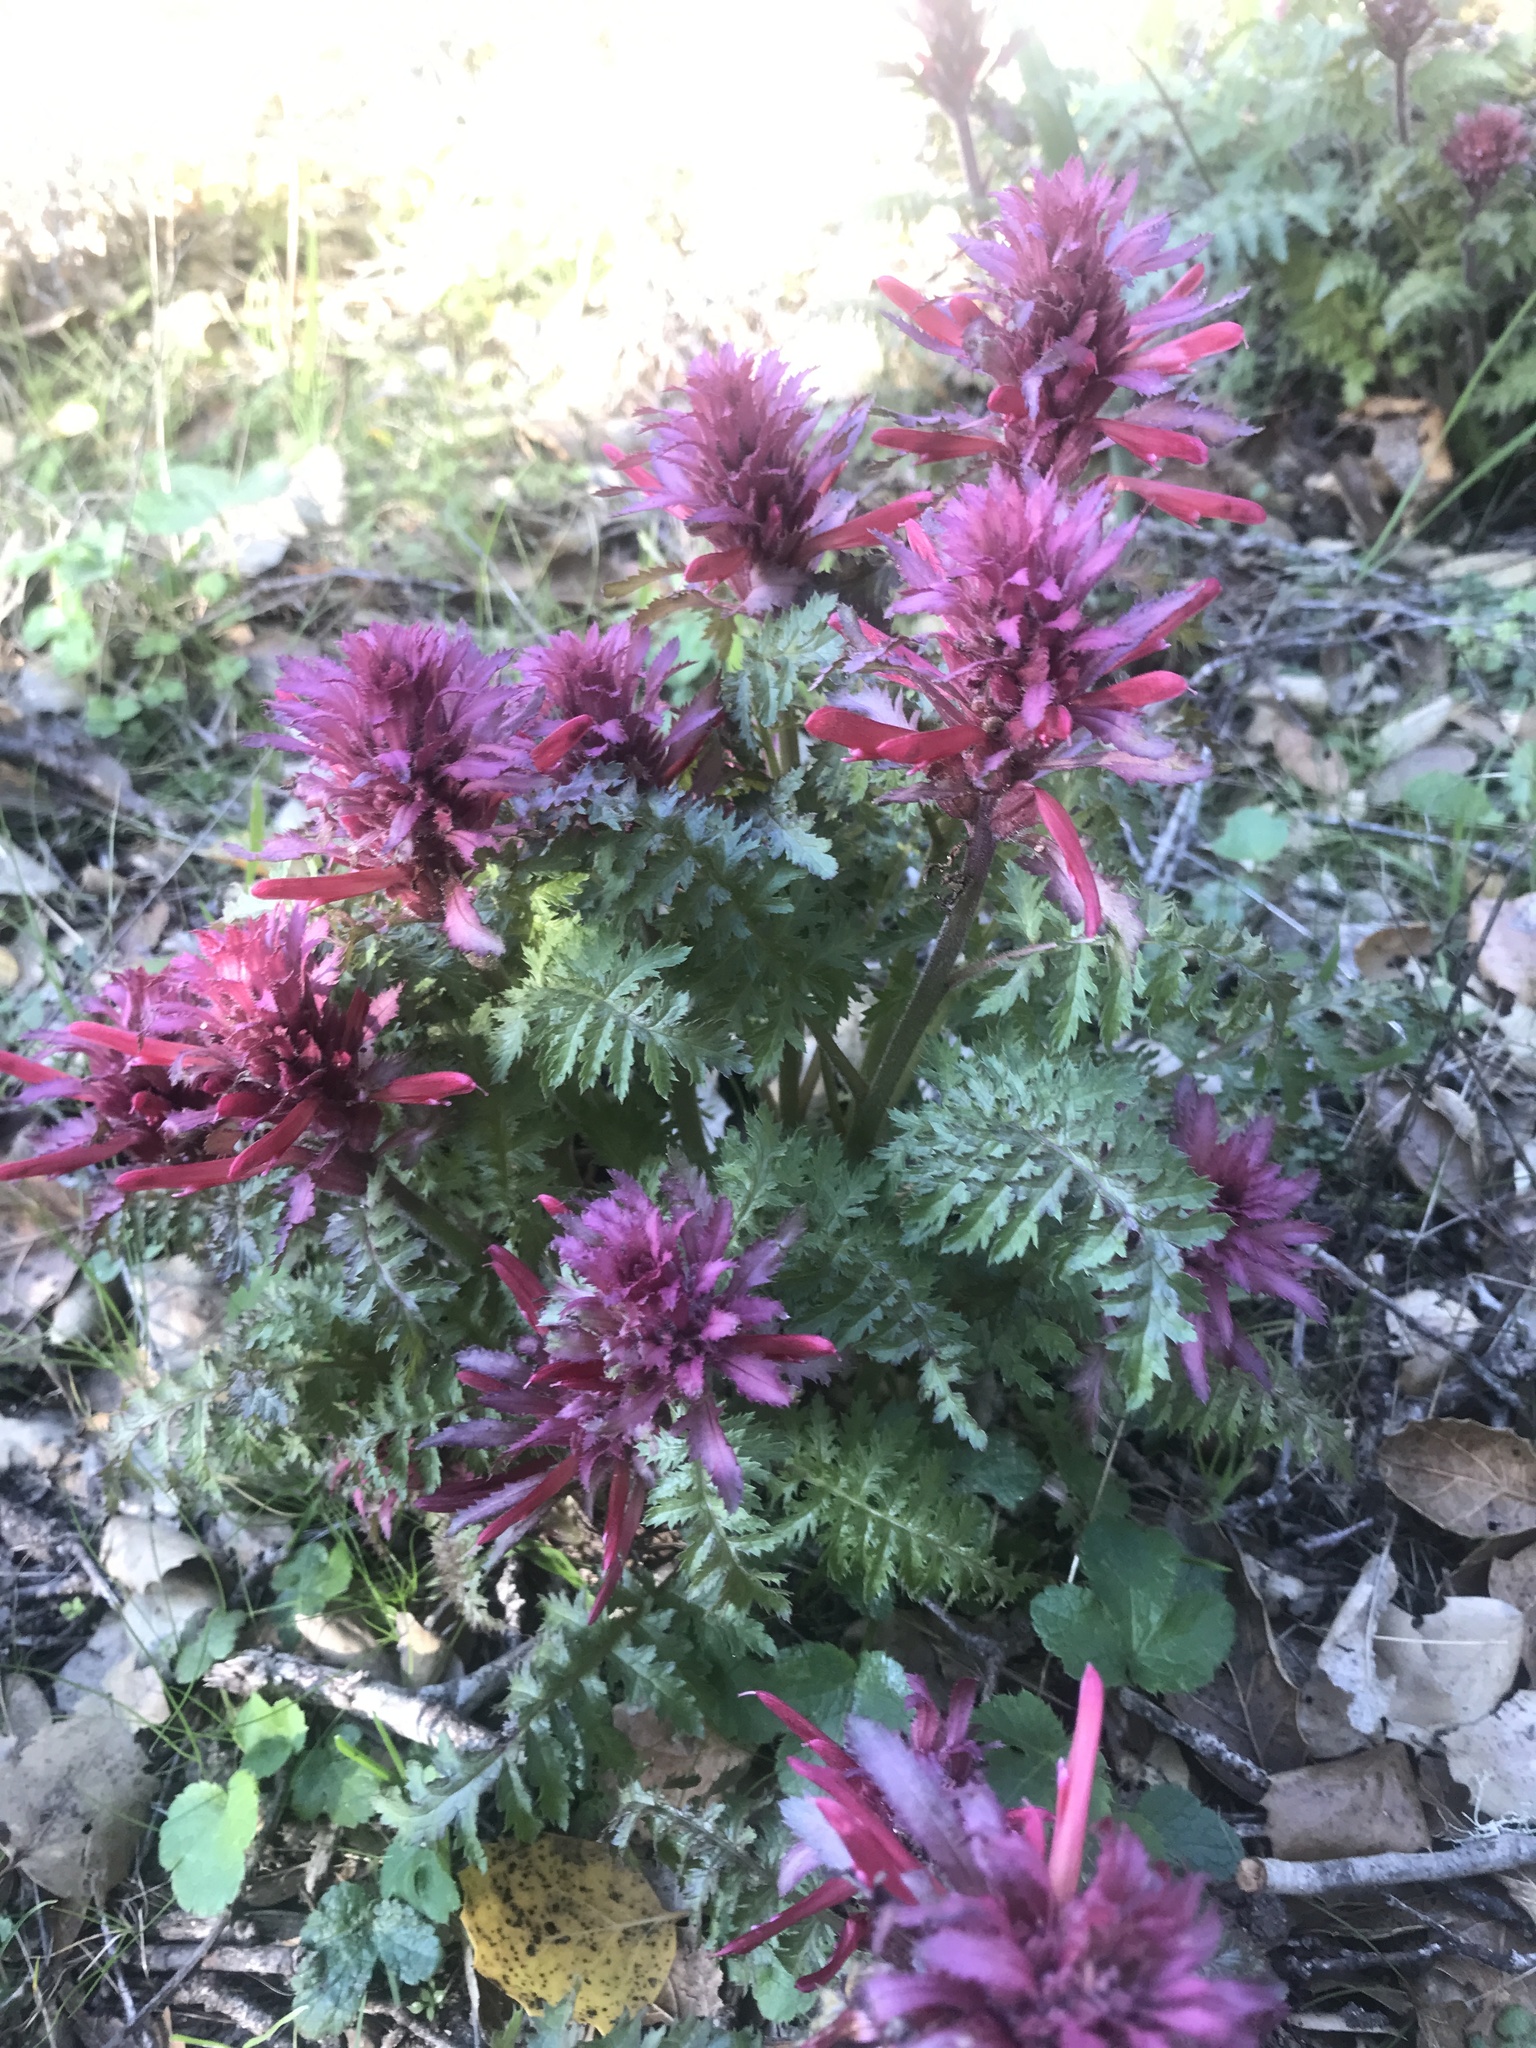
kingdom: Plantae
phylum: Tracheophyta
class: Magnoliopsida
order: Lamiales
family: Orobanchaceae
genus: Pedicularis
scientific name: Pedicularis densiflora
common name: Indian warrior
